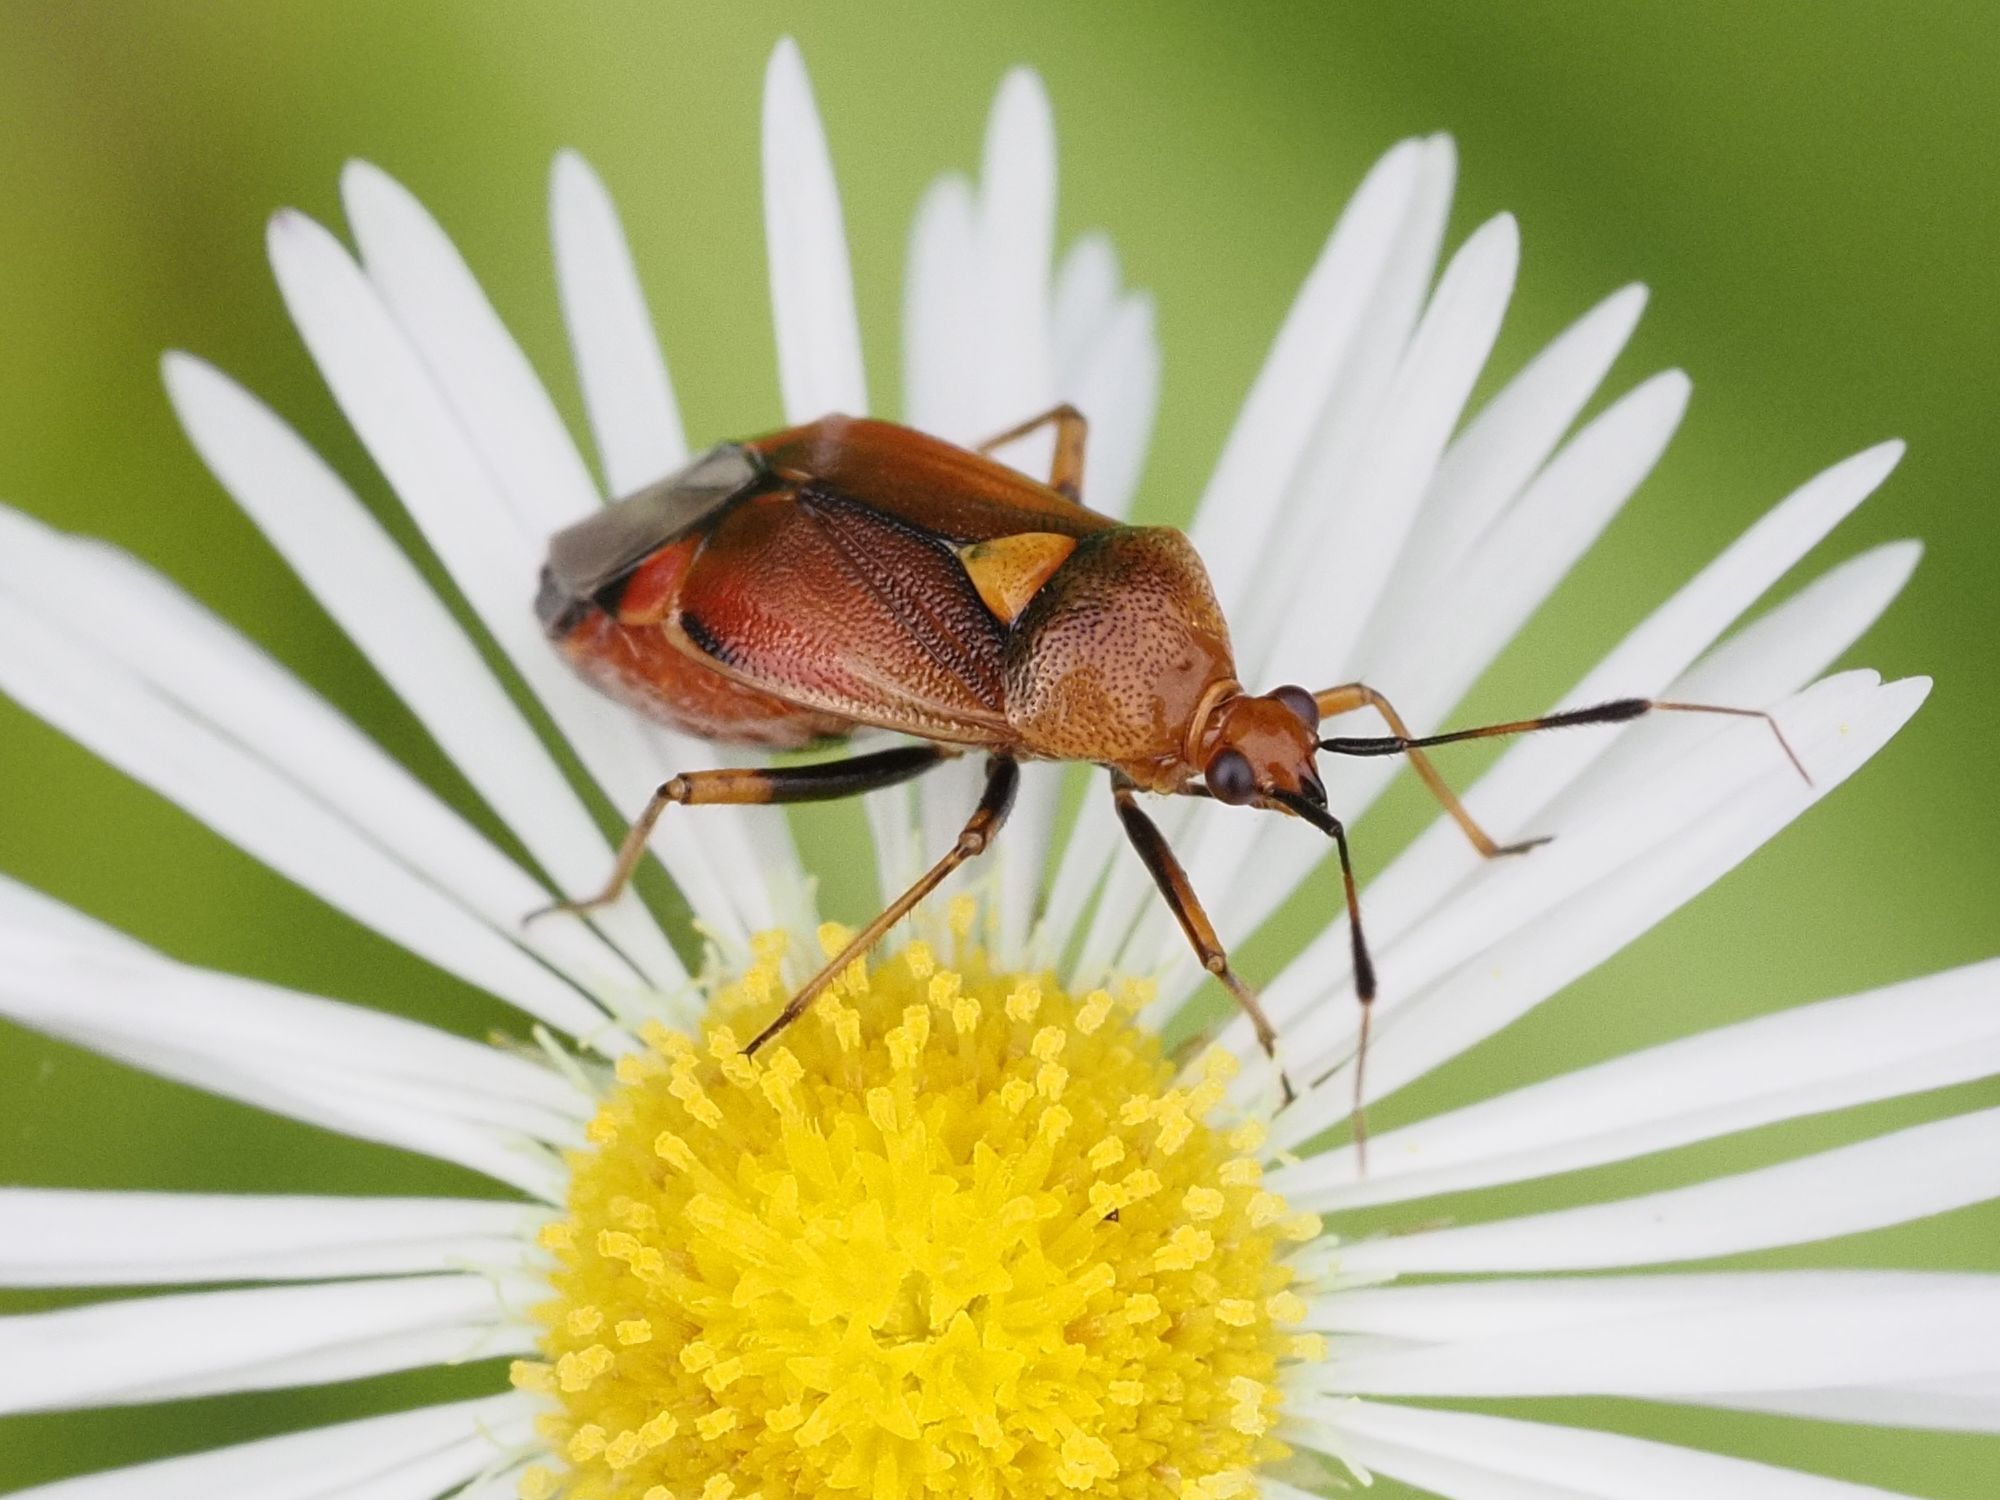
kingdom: Animalia
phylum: Arthropoda
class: Insecta
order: Hemiptera
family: Miridae
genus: Deraeocoris
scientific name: Deraeocoris ruber
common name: Plant bug
